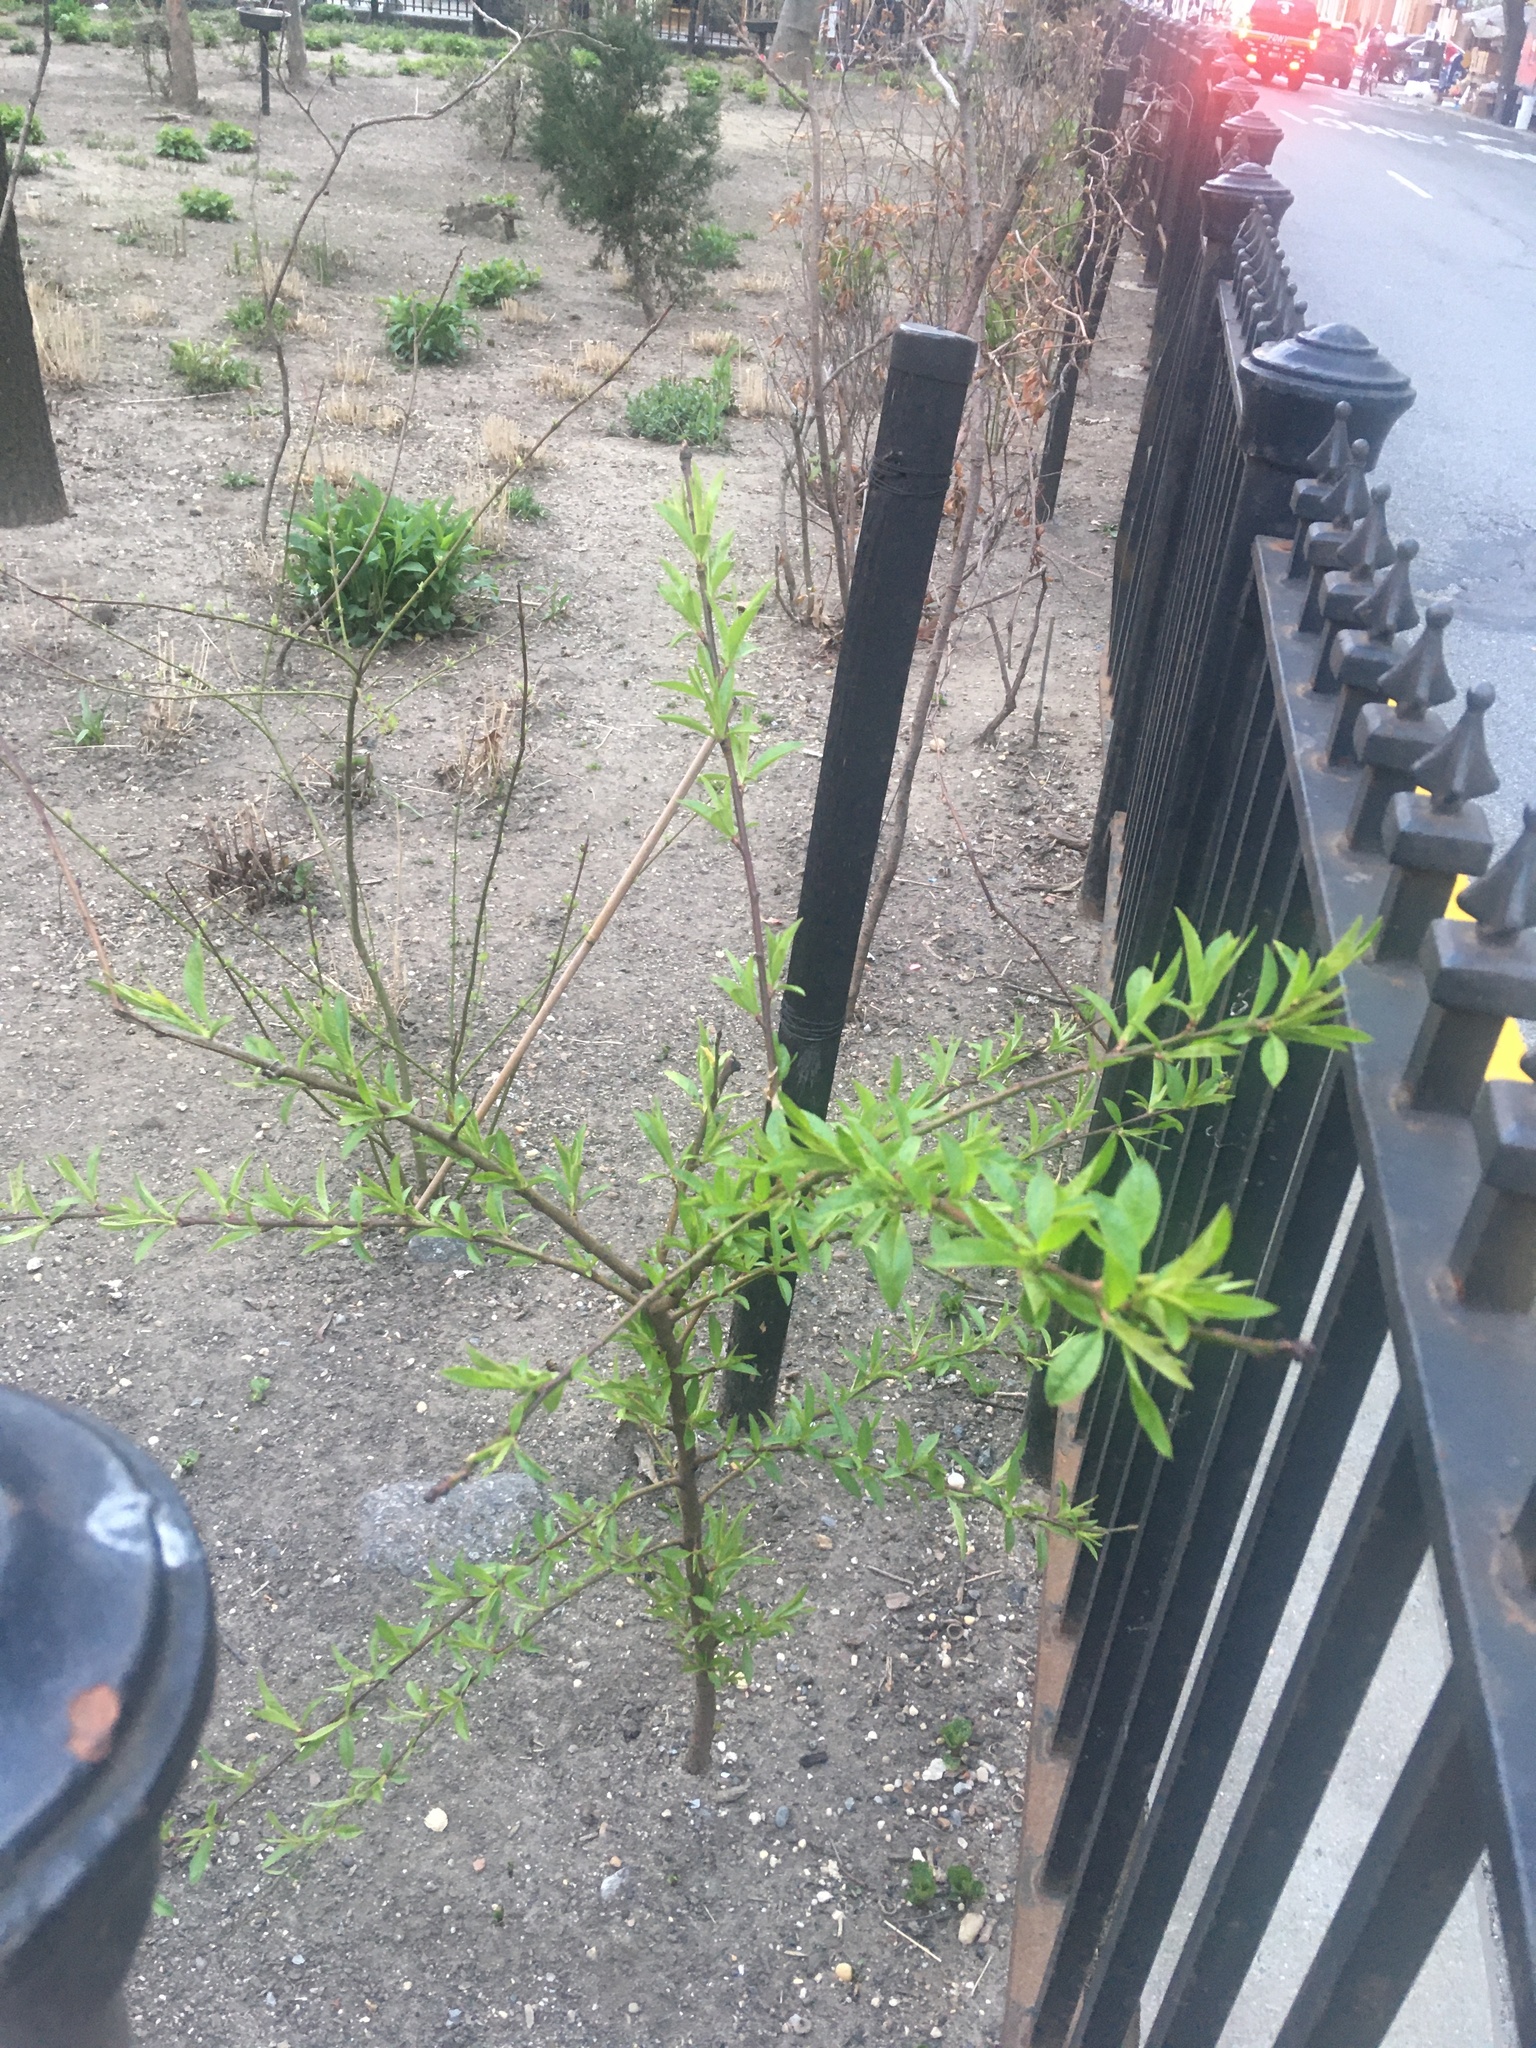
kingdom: Plantae
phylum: Tracheophyta
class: Magnoliopsida
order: Rosales
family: Rosaceae
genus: Prunus
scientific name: Prunus persica
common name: Peach
